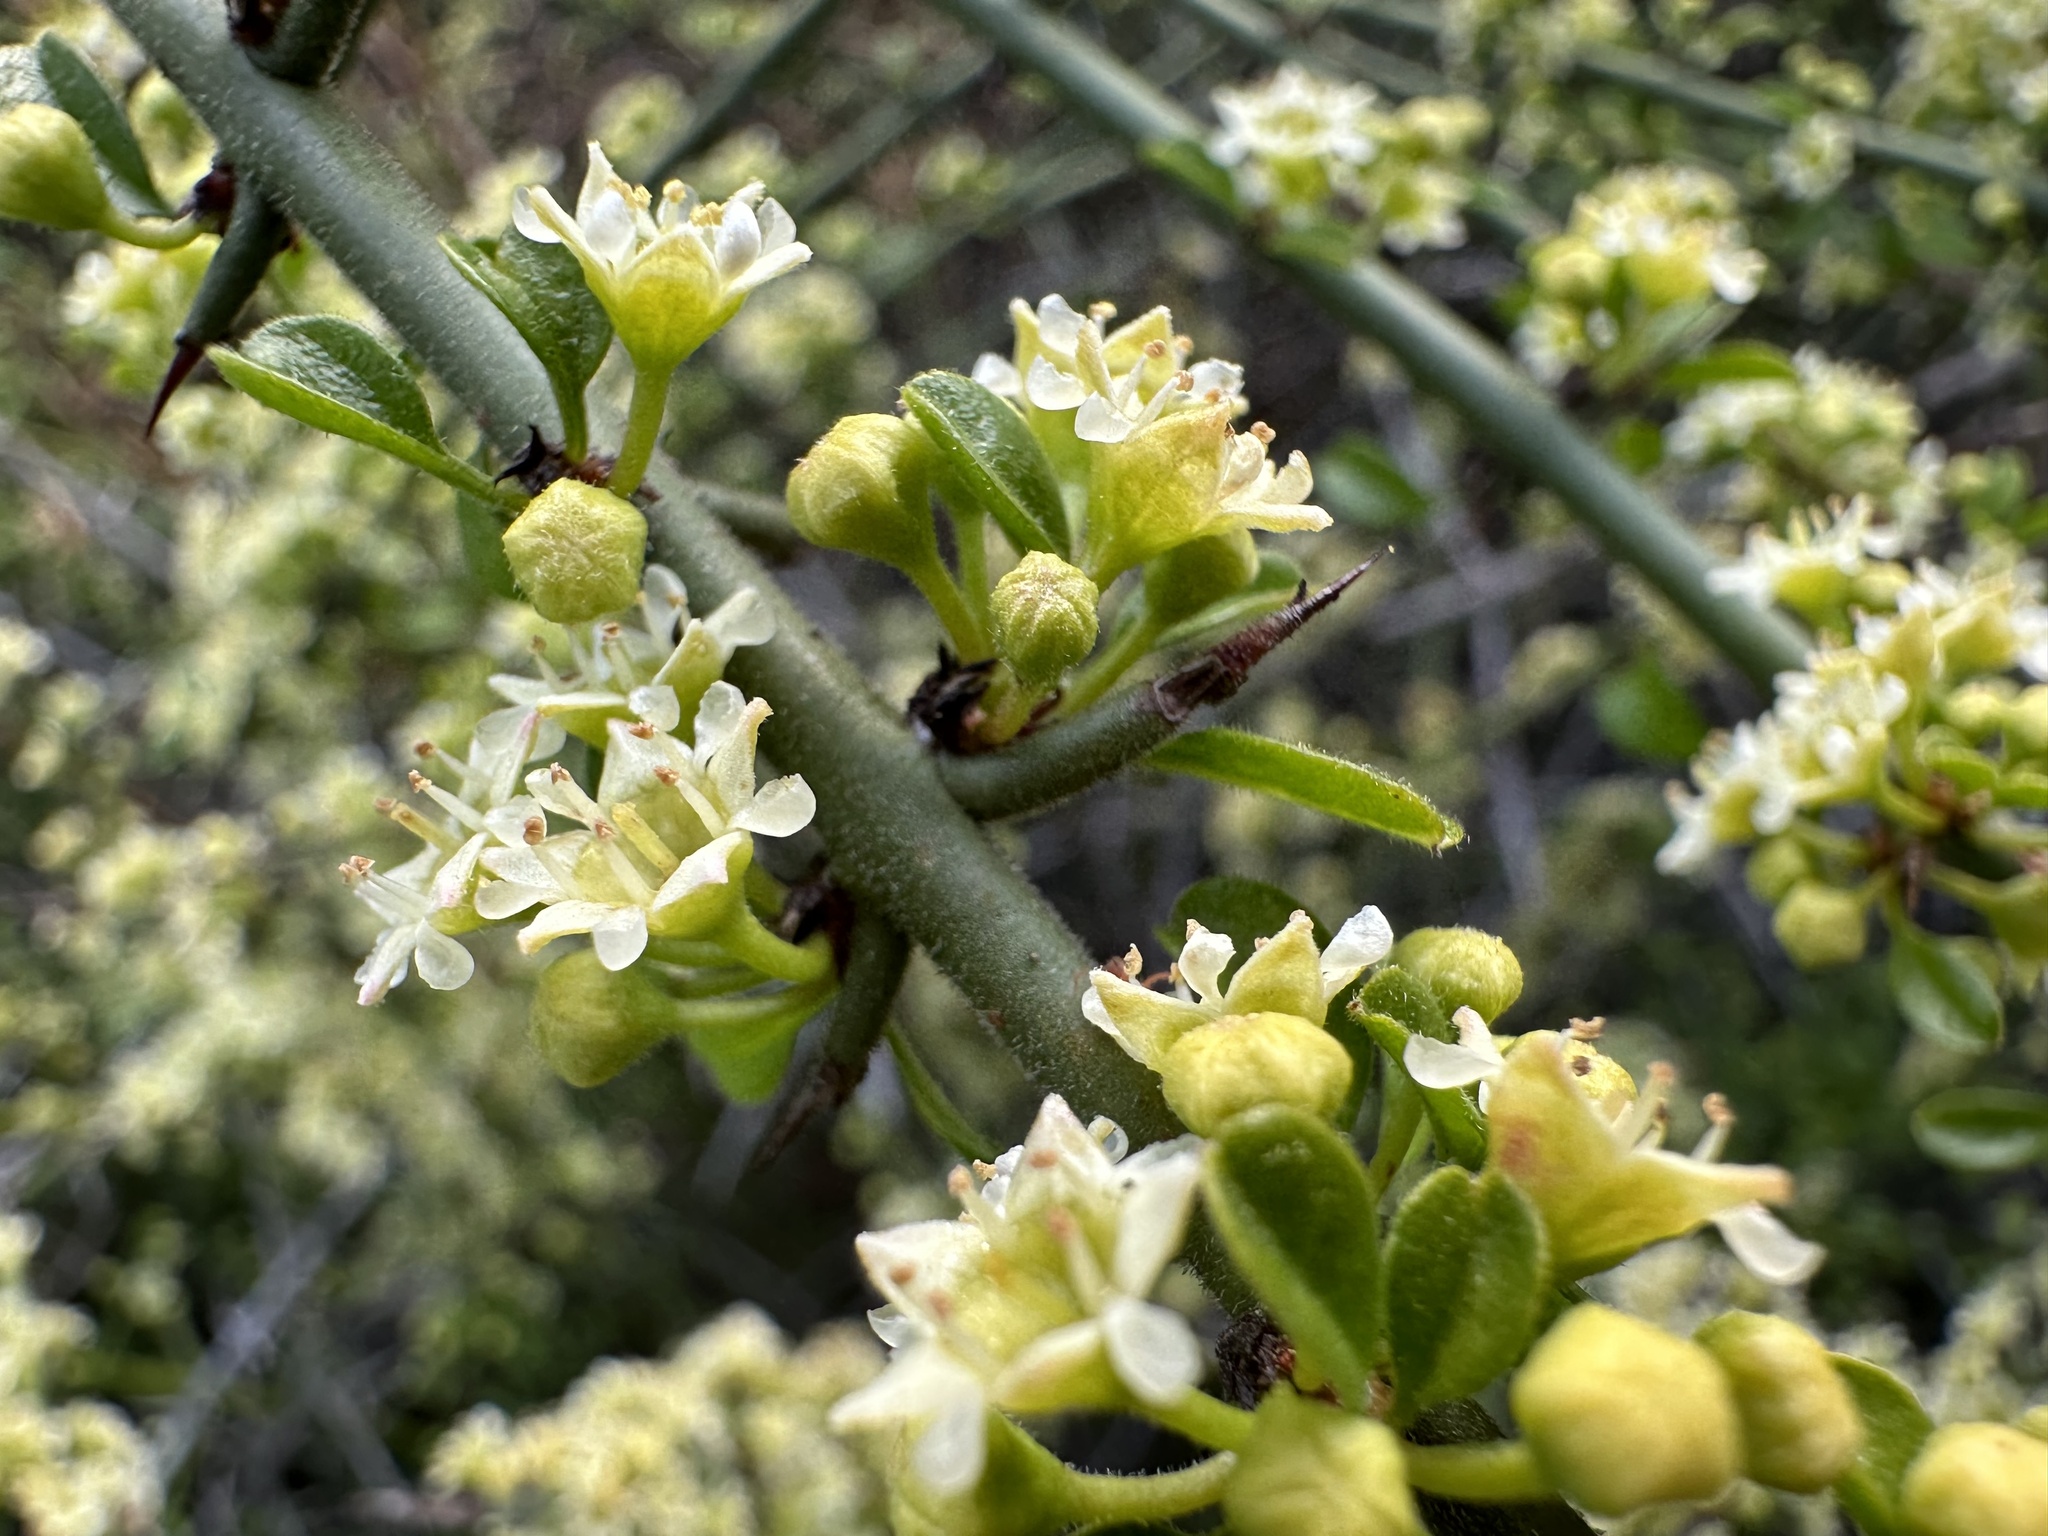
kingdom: Plantae
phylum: Tracheophyta
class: Magnoliopsida
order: Rosales
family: Rhamnaceae
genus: Adolphia
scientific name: Adolphia californica
